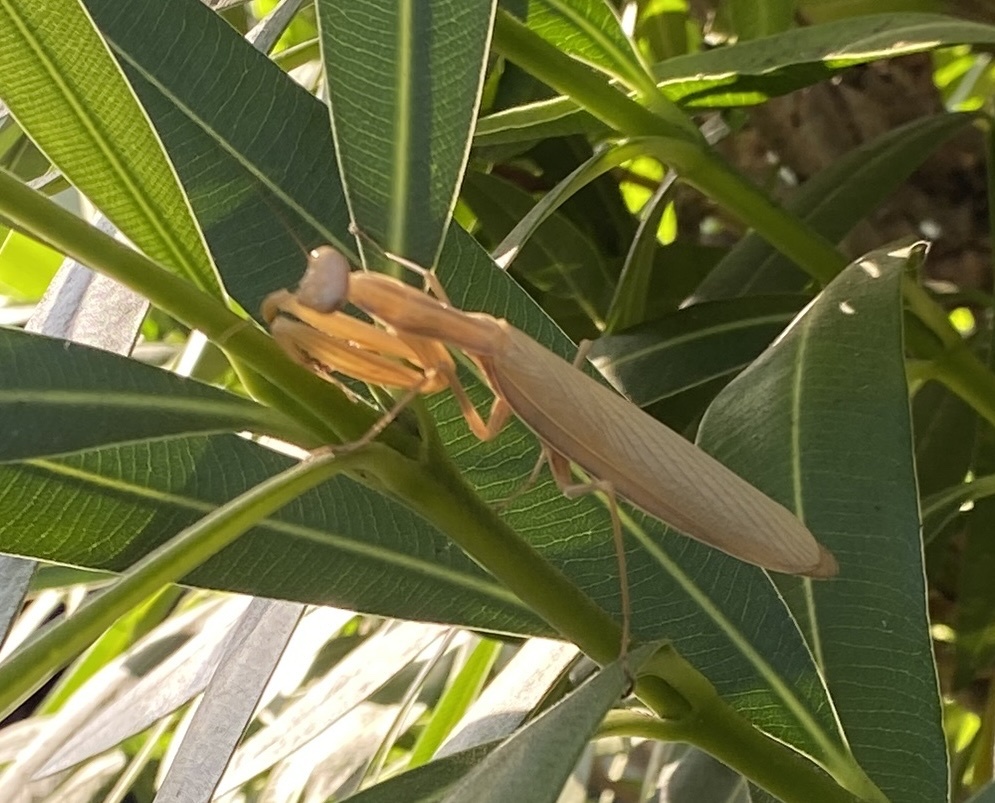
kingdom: Animalia
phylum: Arthropoda
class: Insecta
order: Mantodea
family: Mantidae
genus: Mantis
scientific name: Mantis religiosa
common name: Praying mantis
